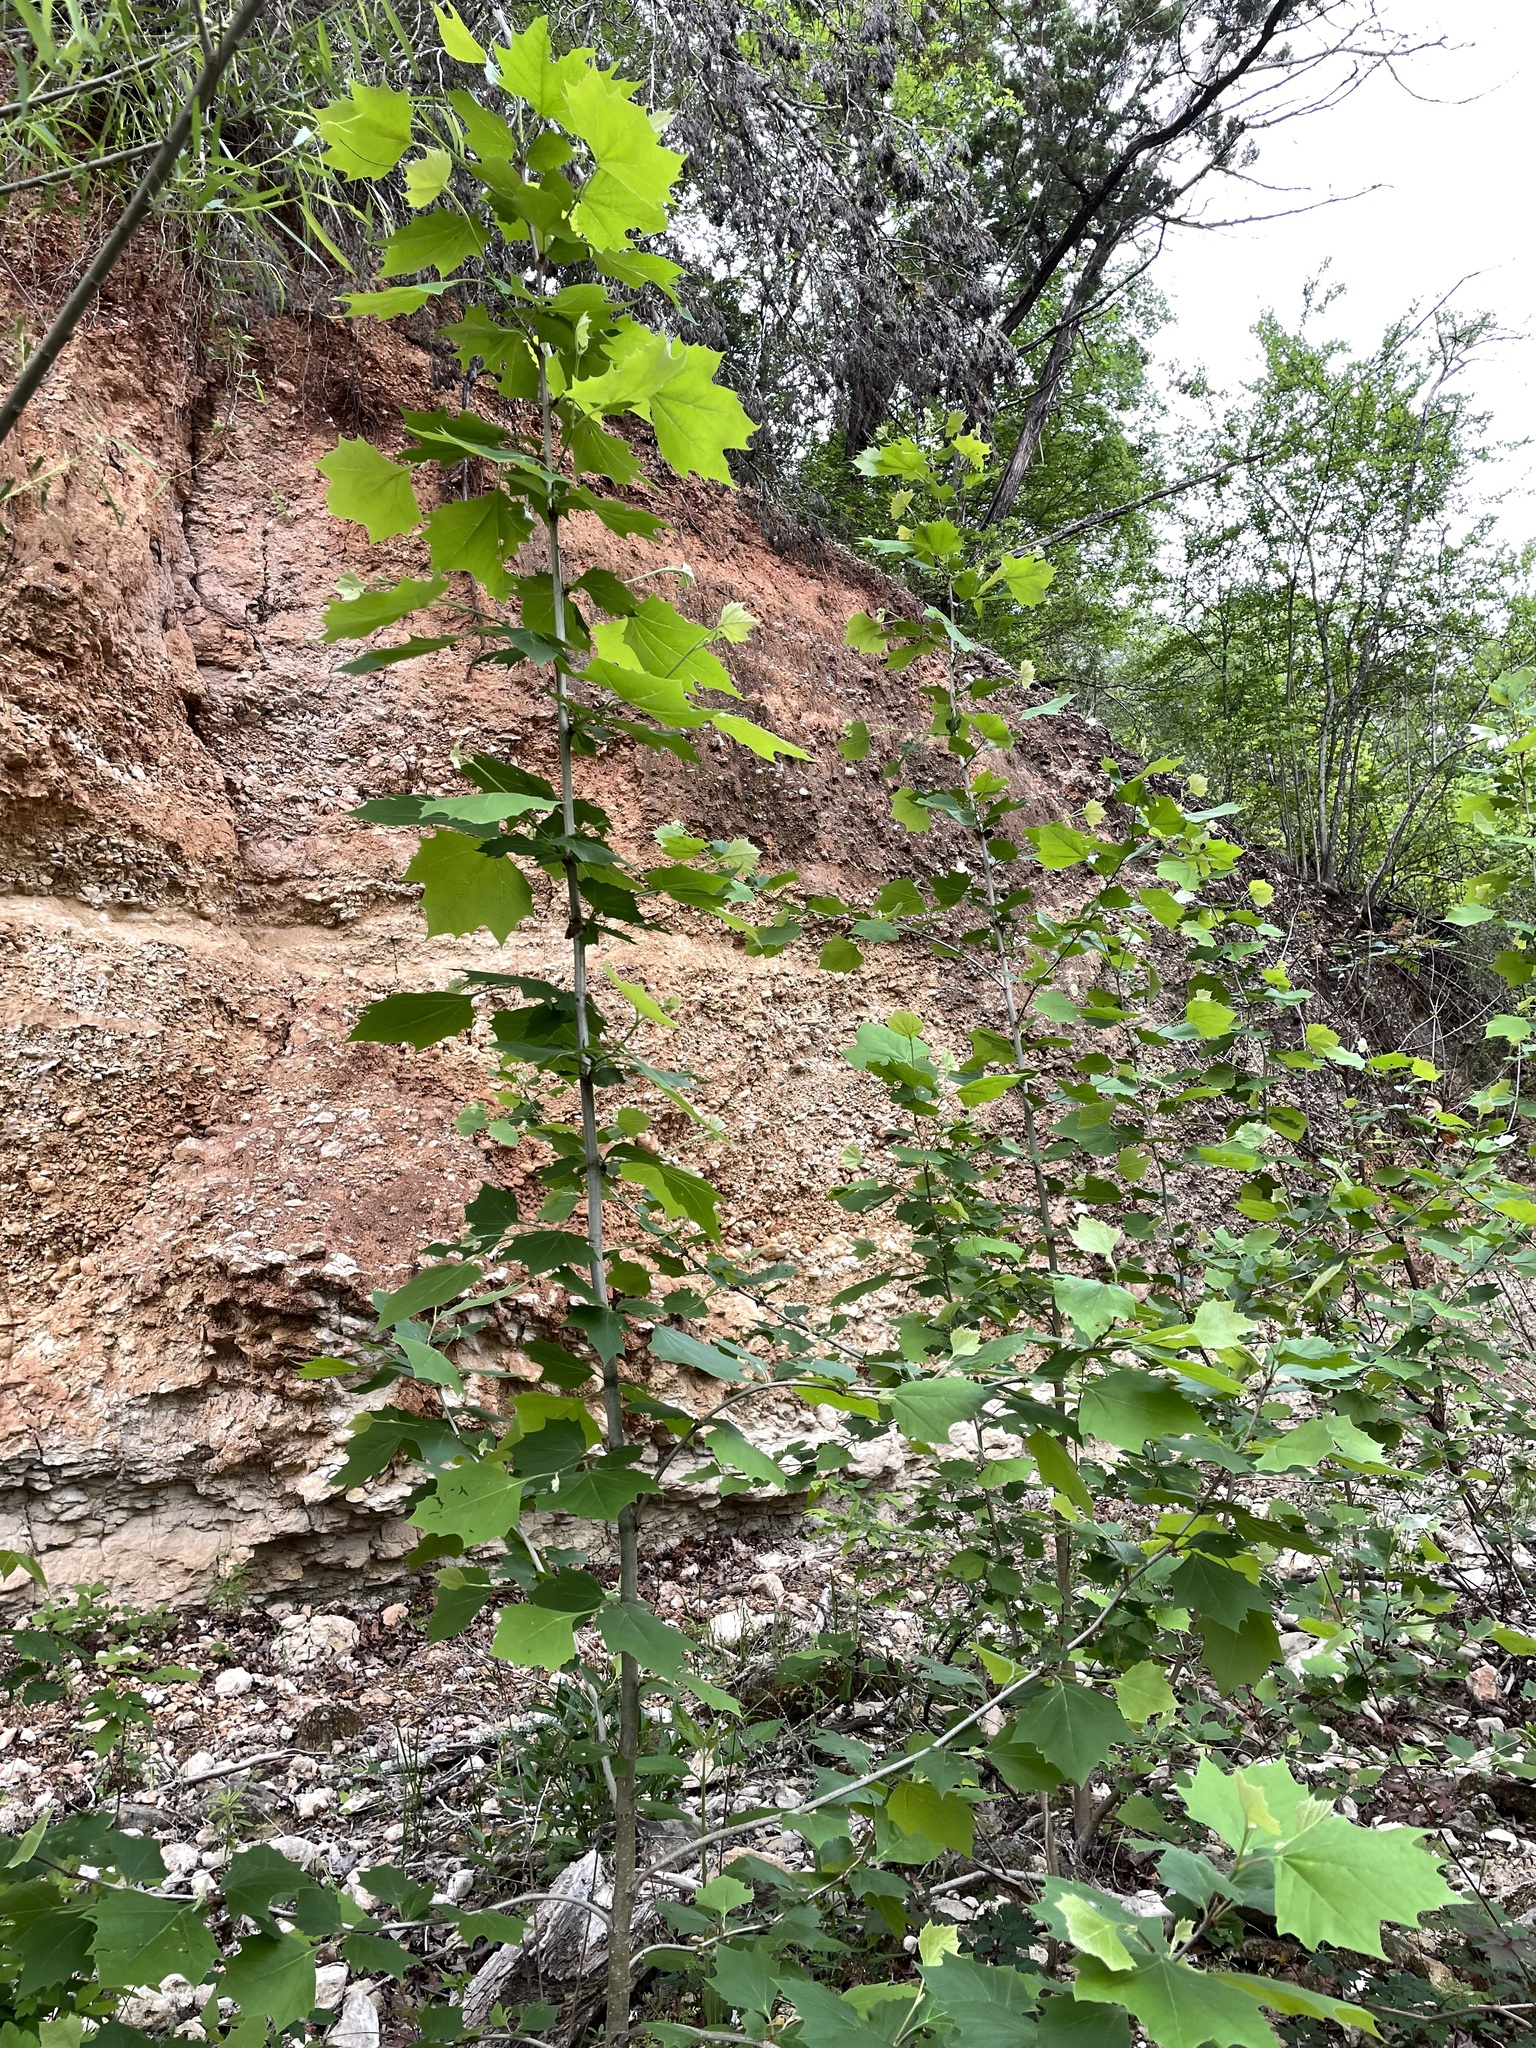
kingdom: Plantae
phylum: Tracheophyta
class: Magnoliopsida
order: Proteales
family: Platanaceae
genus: Platanus
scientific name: Platanus occidentalis
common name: American sycamore
